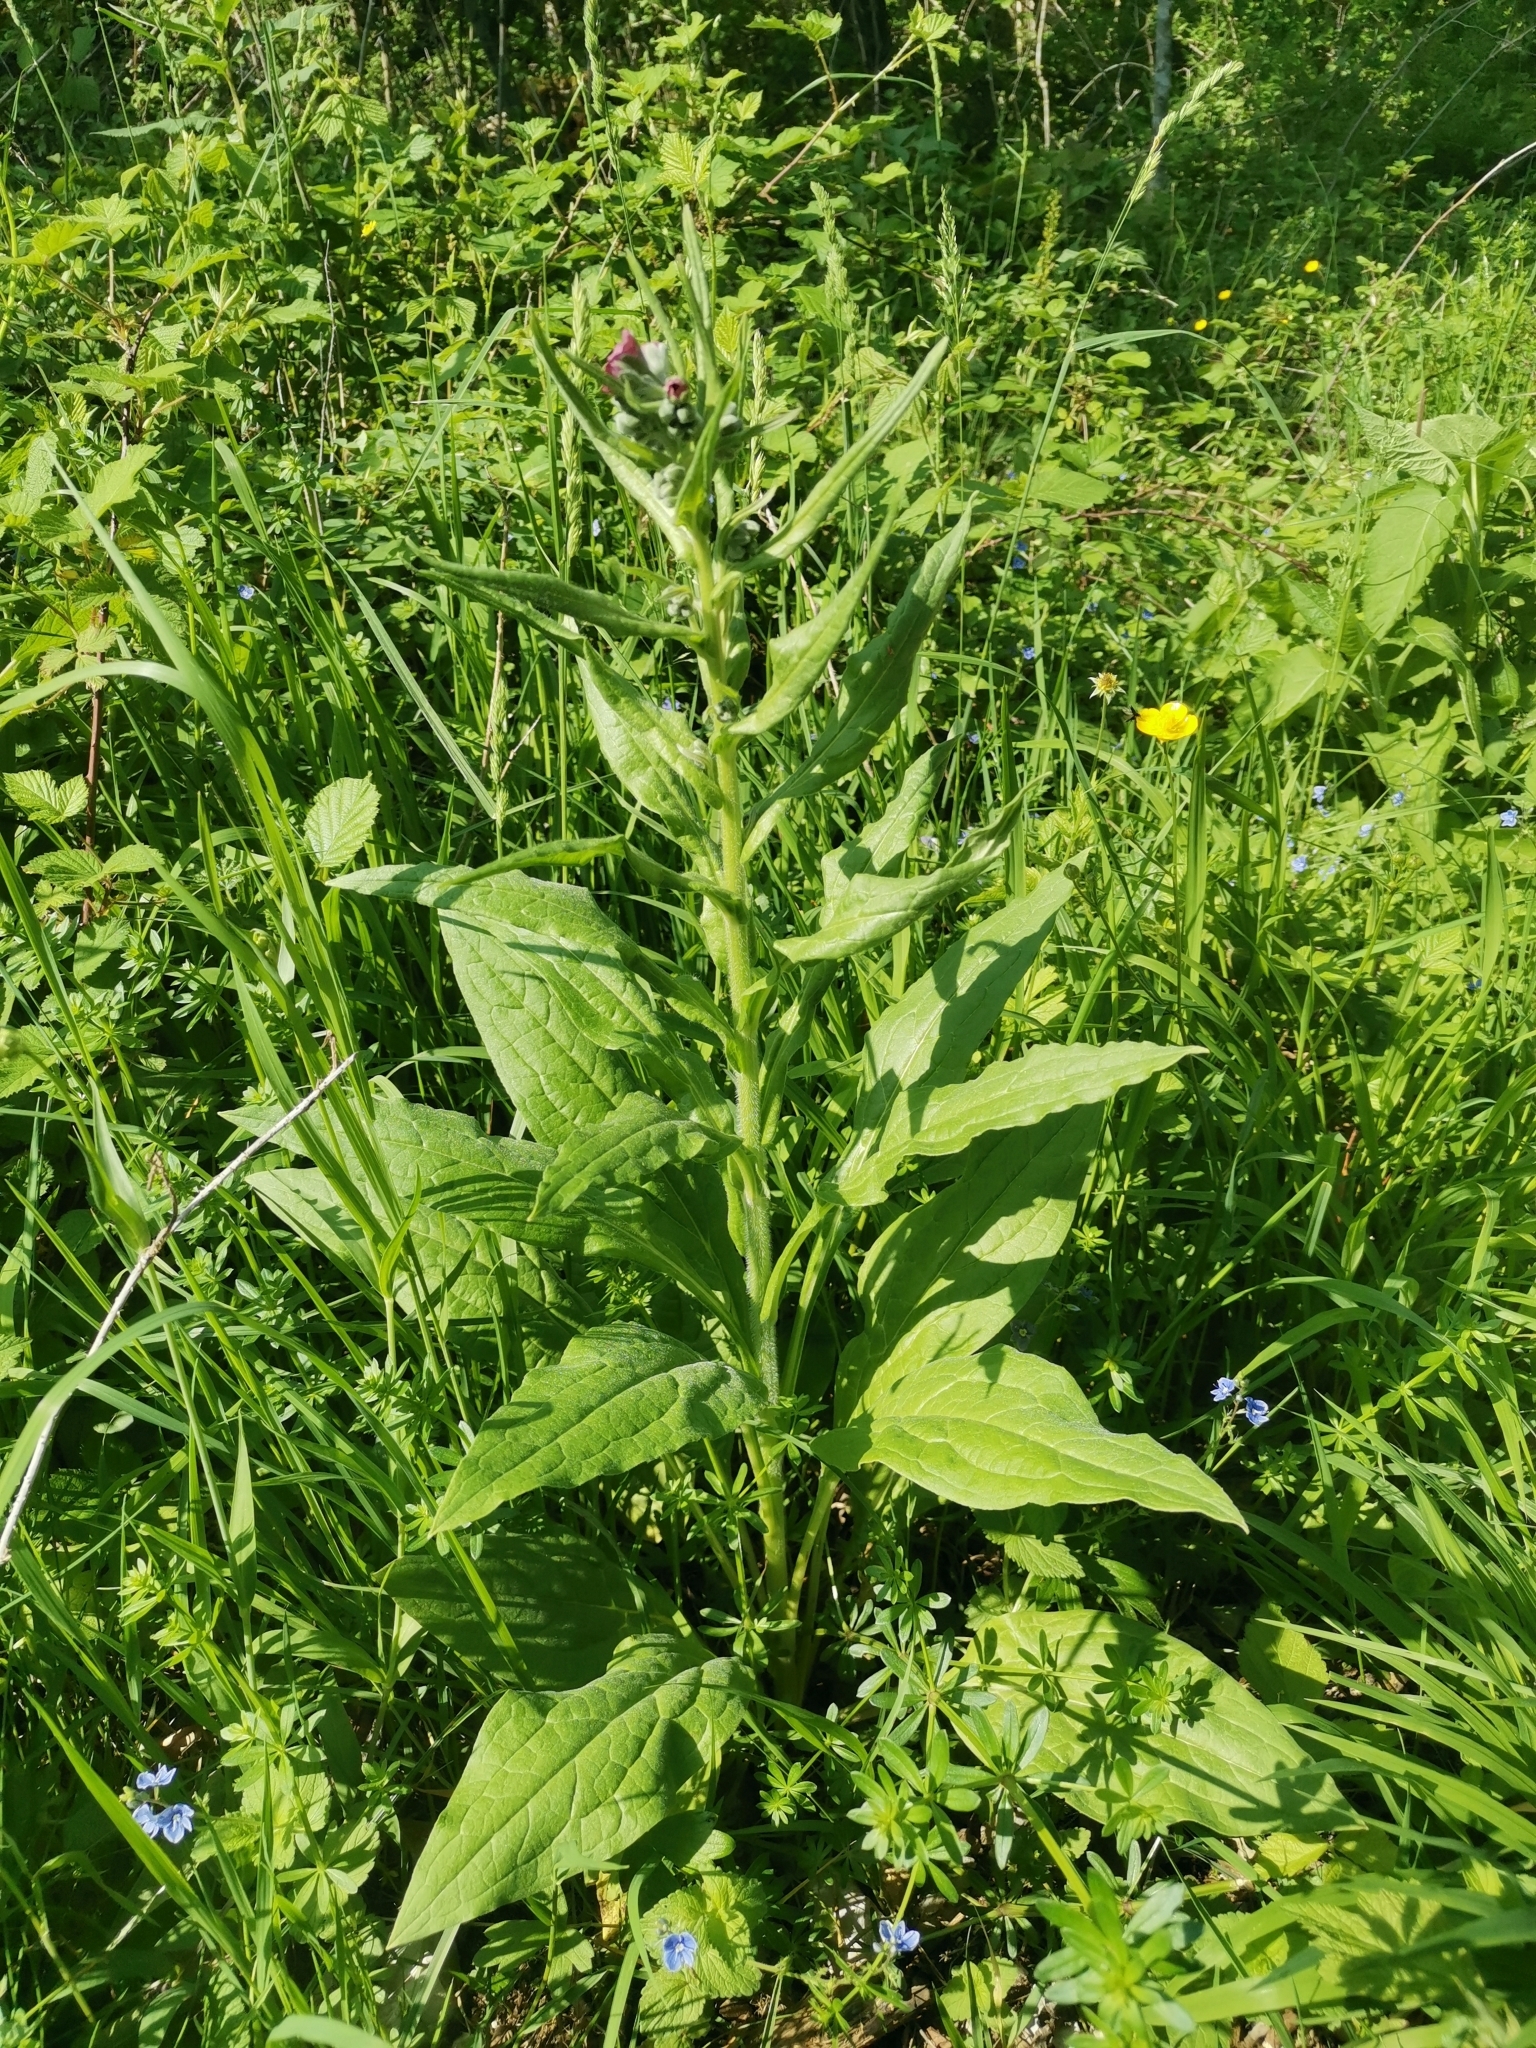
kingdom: Plantae
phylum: Tracheophyta
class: Magnoliopsida
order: Boraginales
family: Boraginaceae
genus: Cynoglossum
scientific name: Cynoglossum officinale
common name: Hound's-tongue
